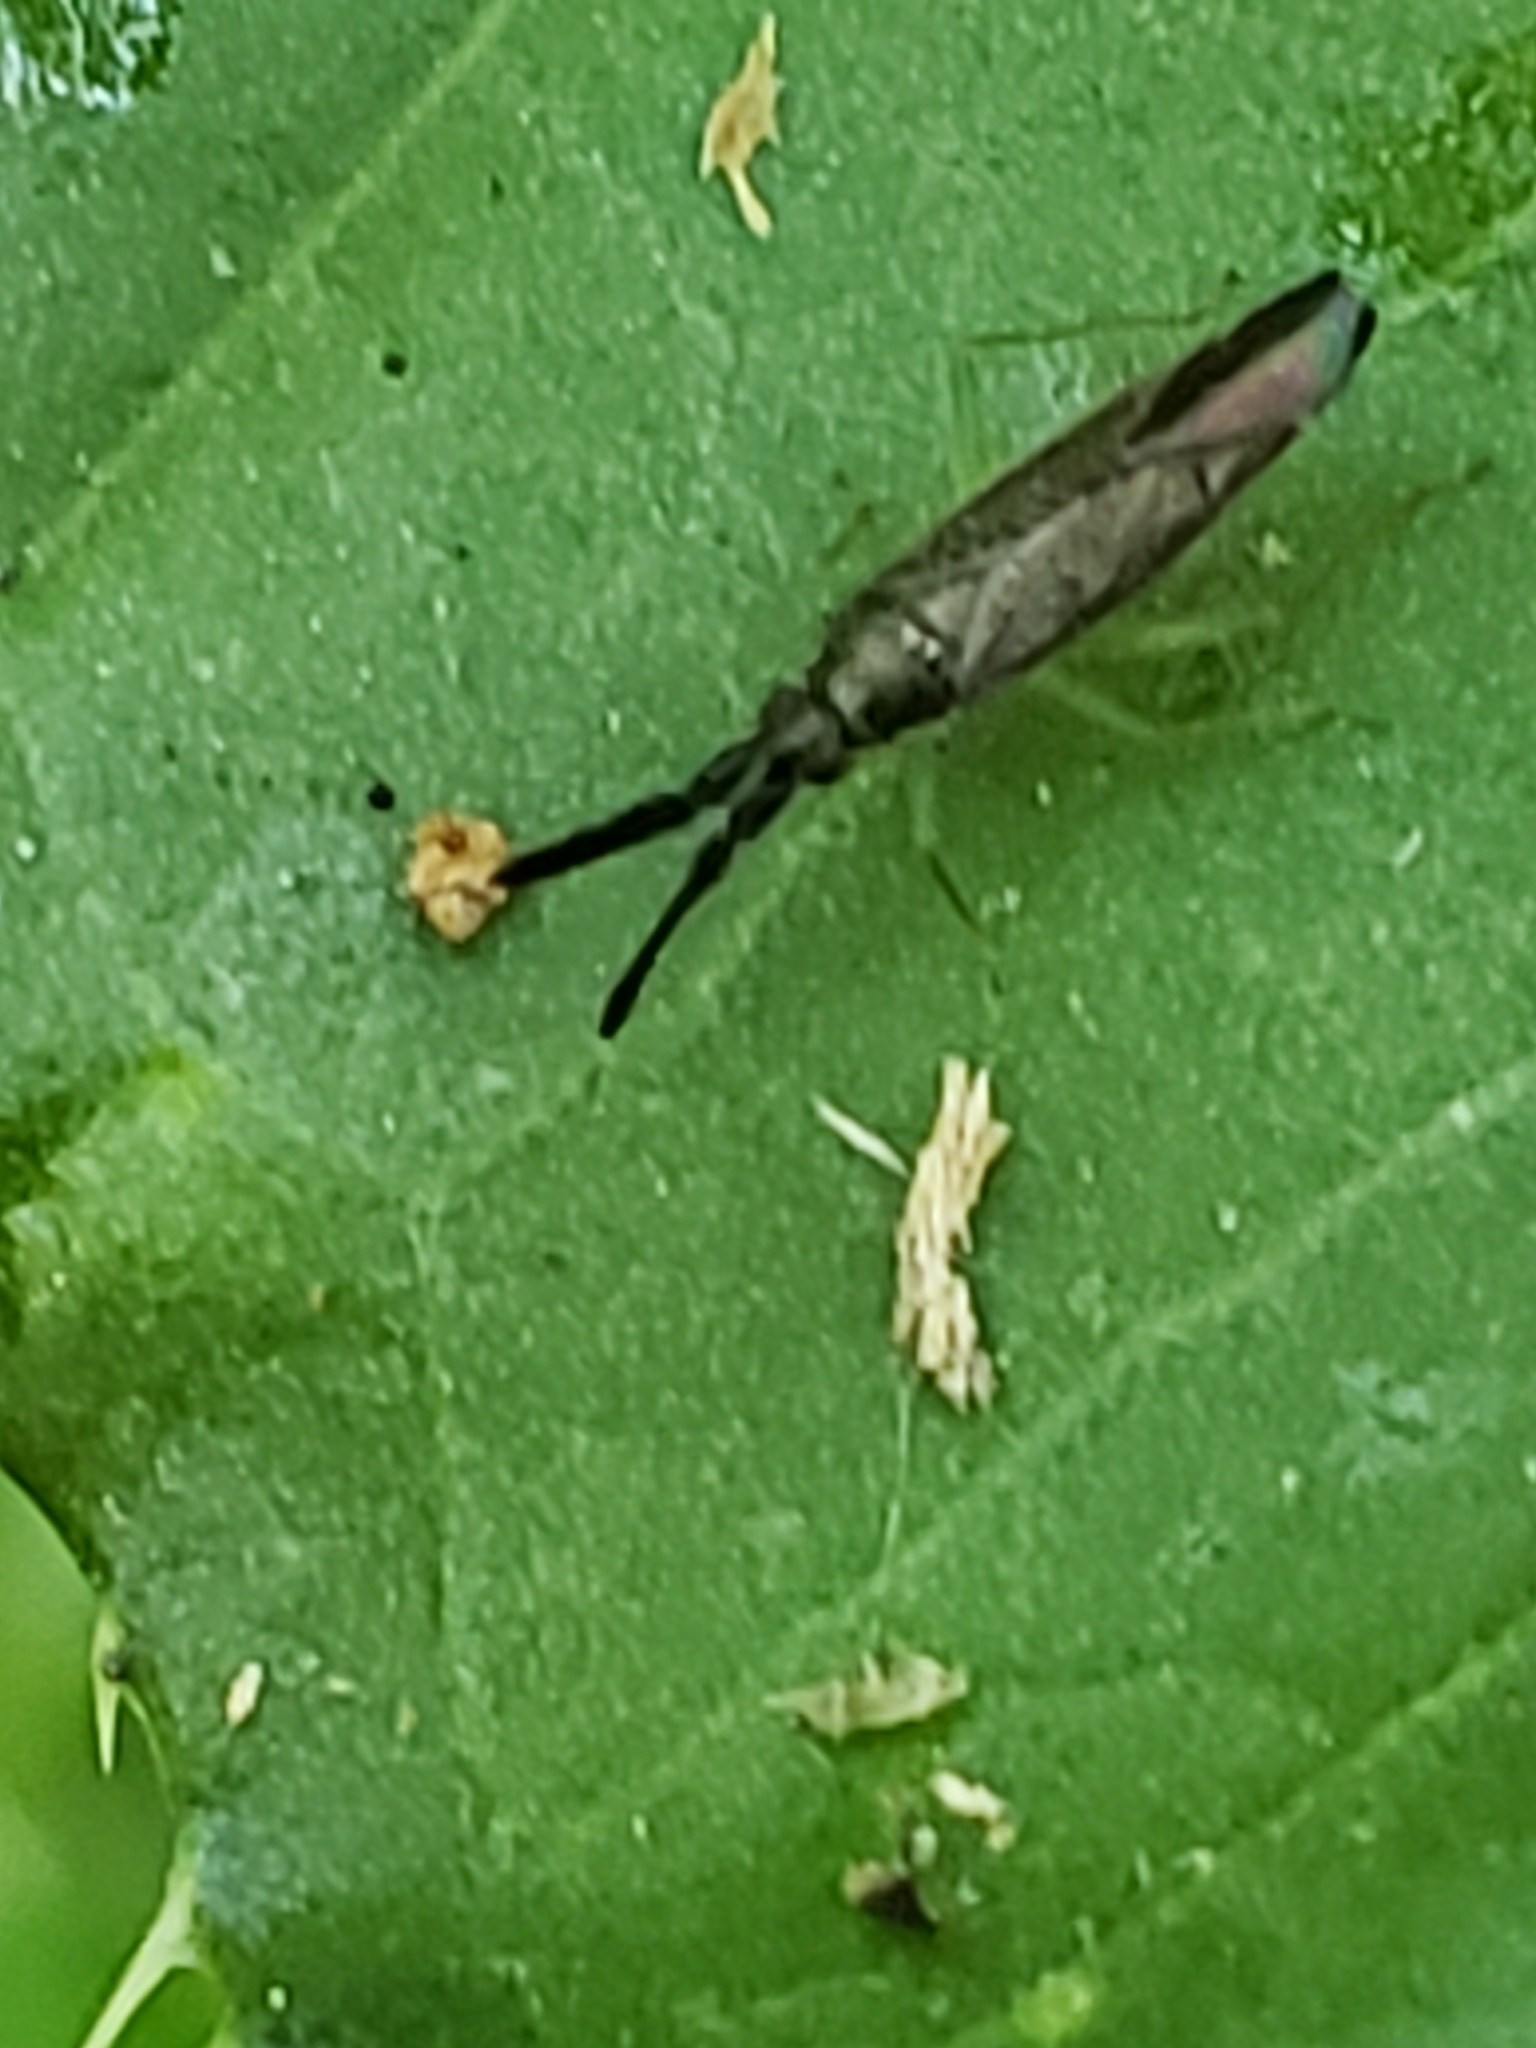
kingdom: Animalia
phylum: Arthropoda
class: Insecta
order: Hemiptera
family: Miridae
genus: Heterotoma
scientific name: Heterotoma planicornis
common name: Plant bug
